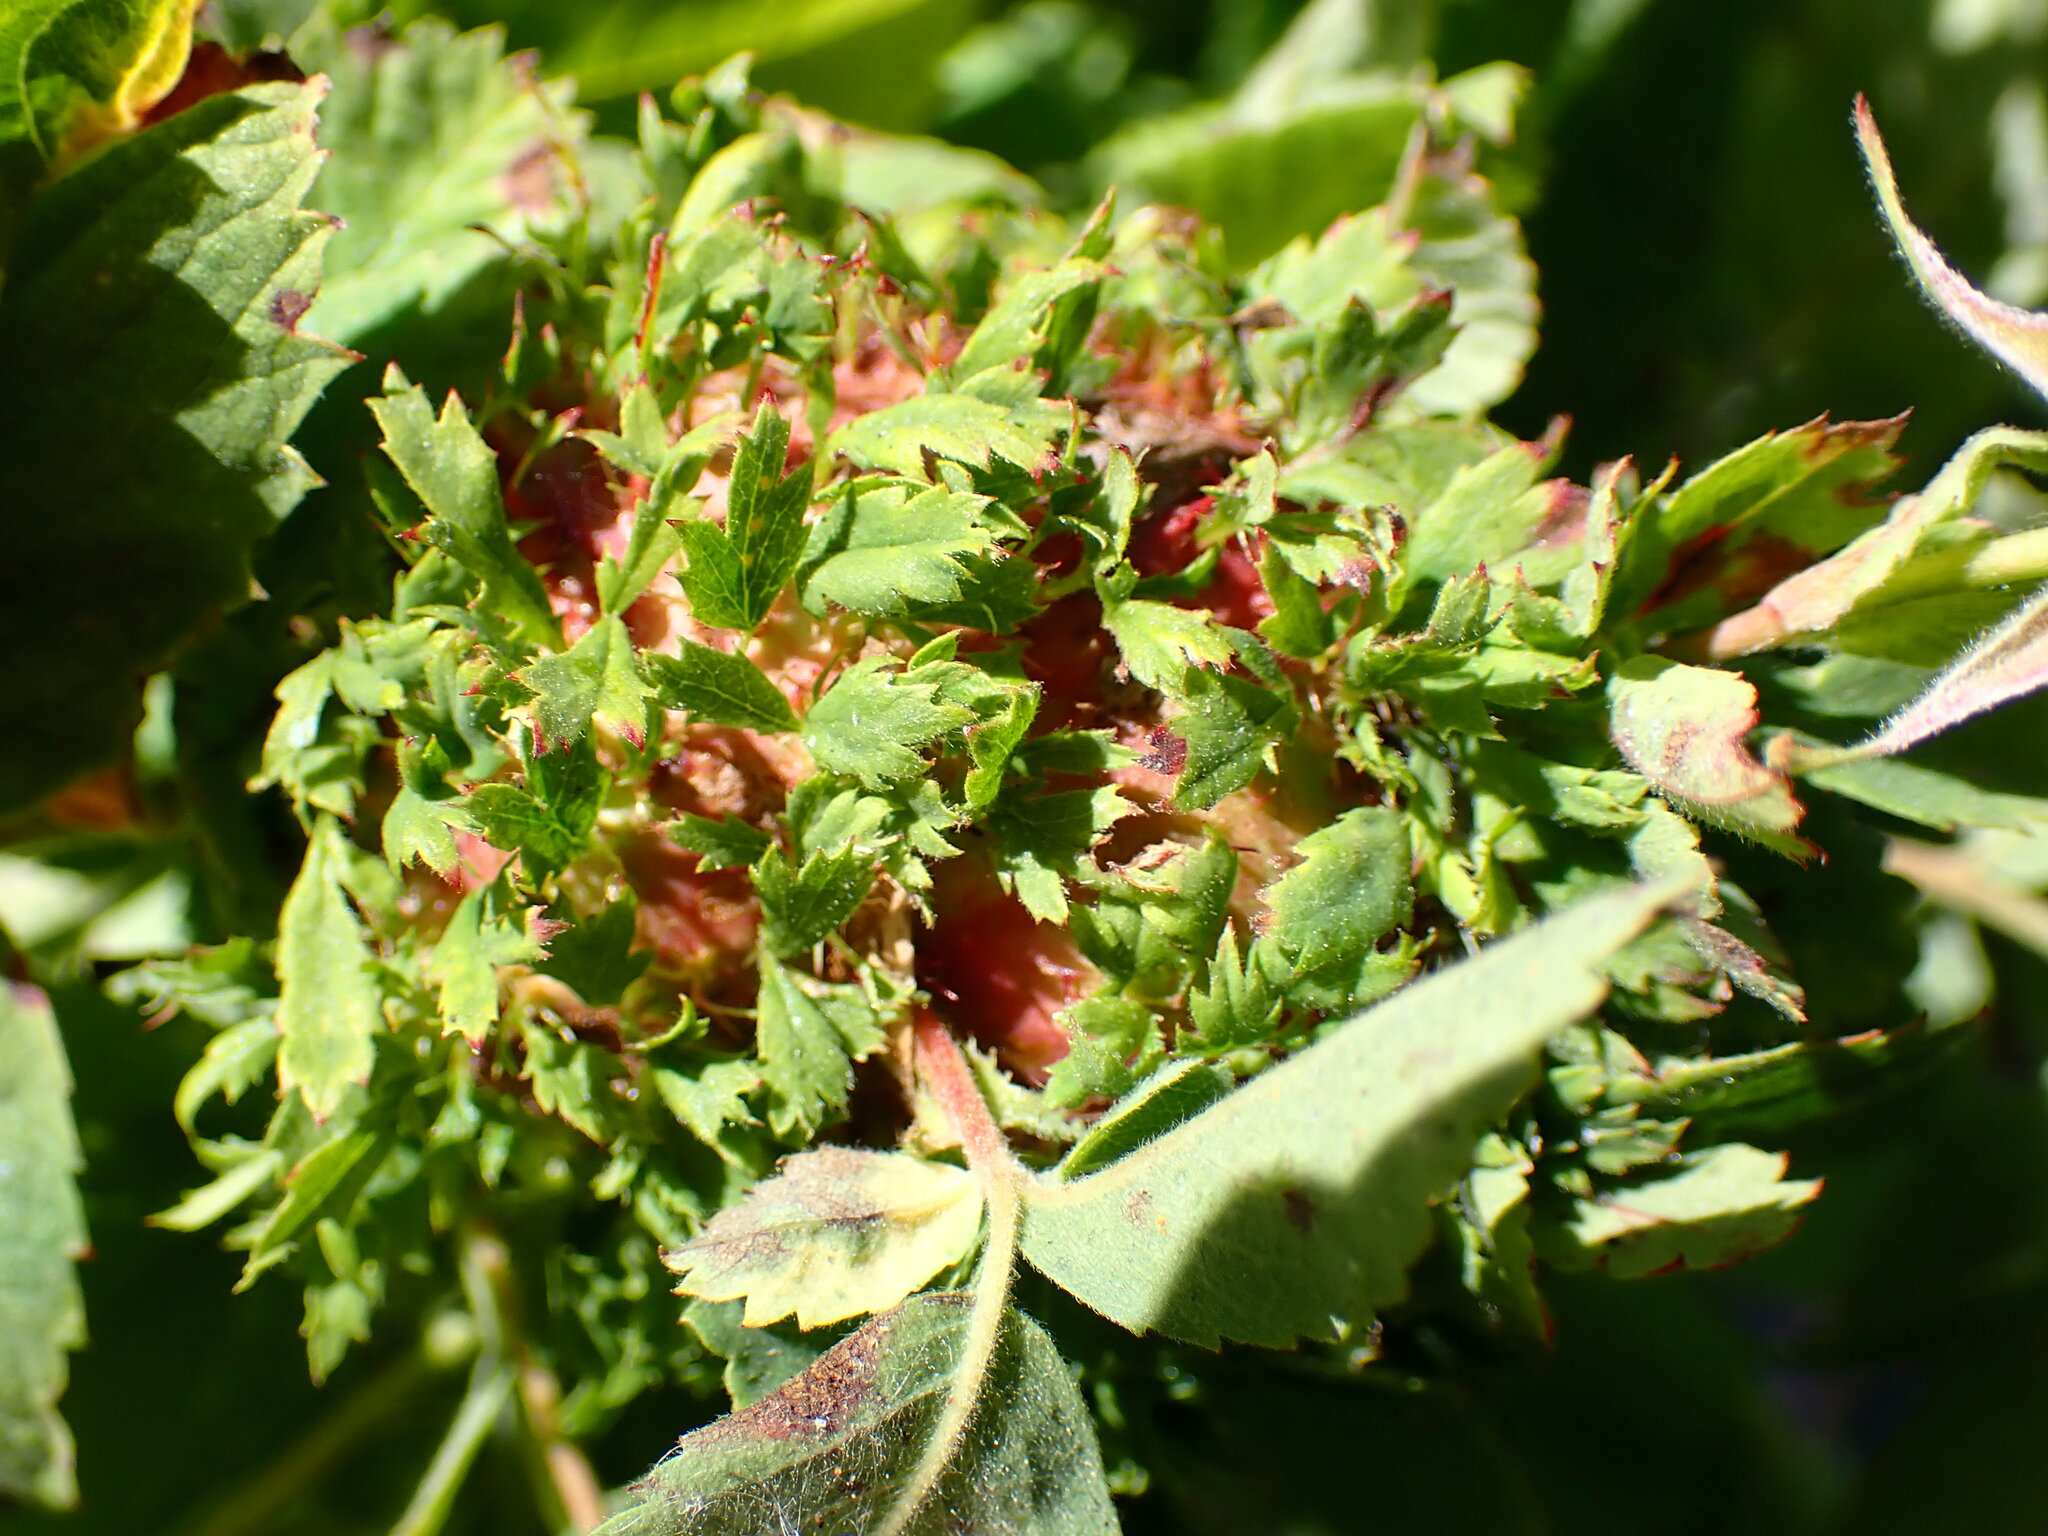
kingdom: Animalia
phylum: Arthropoda
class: Insecta
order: Hymenoptera
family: Cynipidae
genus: Diplolepis
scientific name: Diplolepis californica
